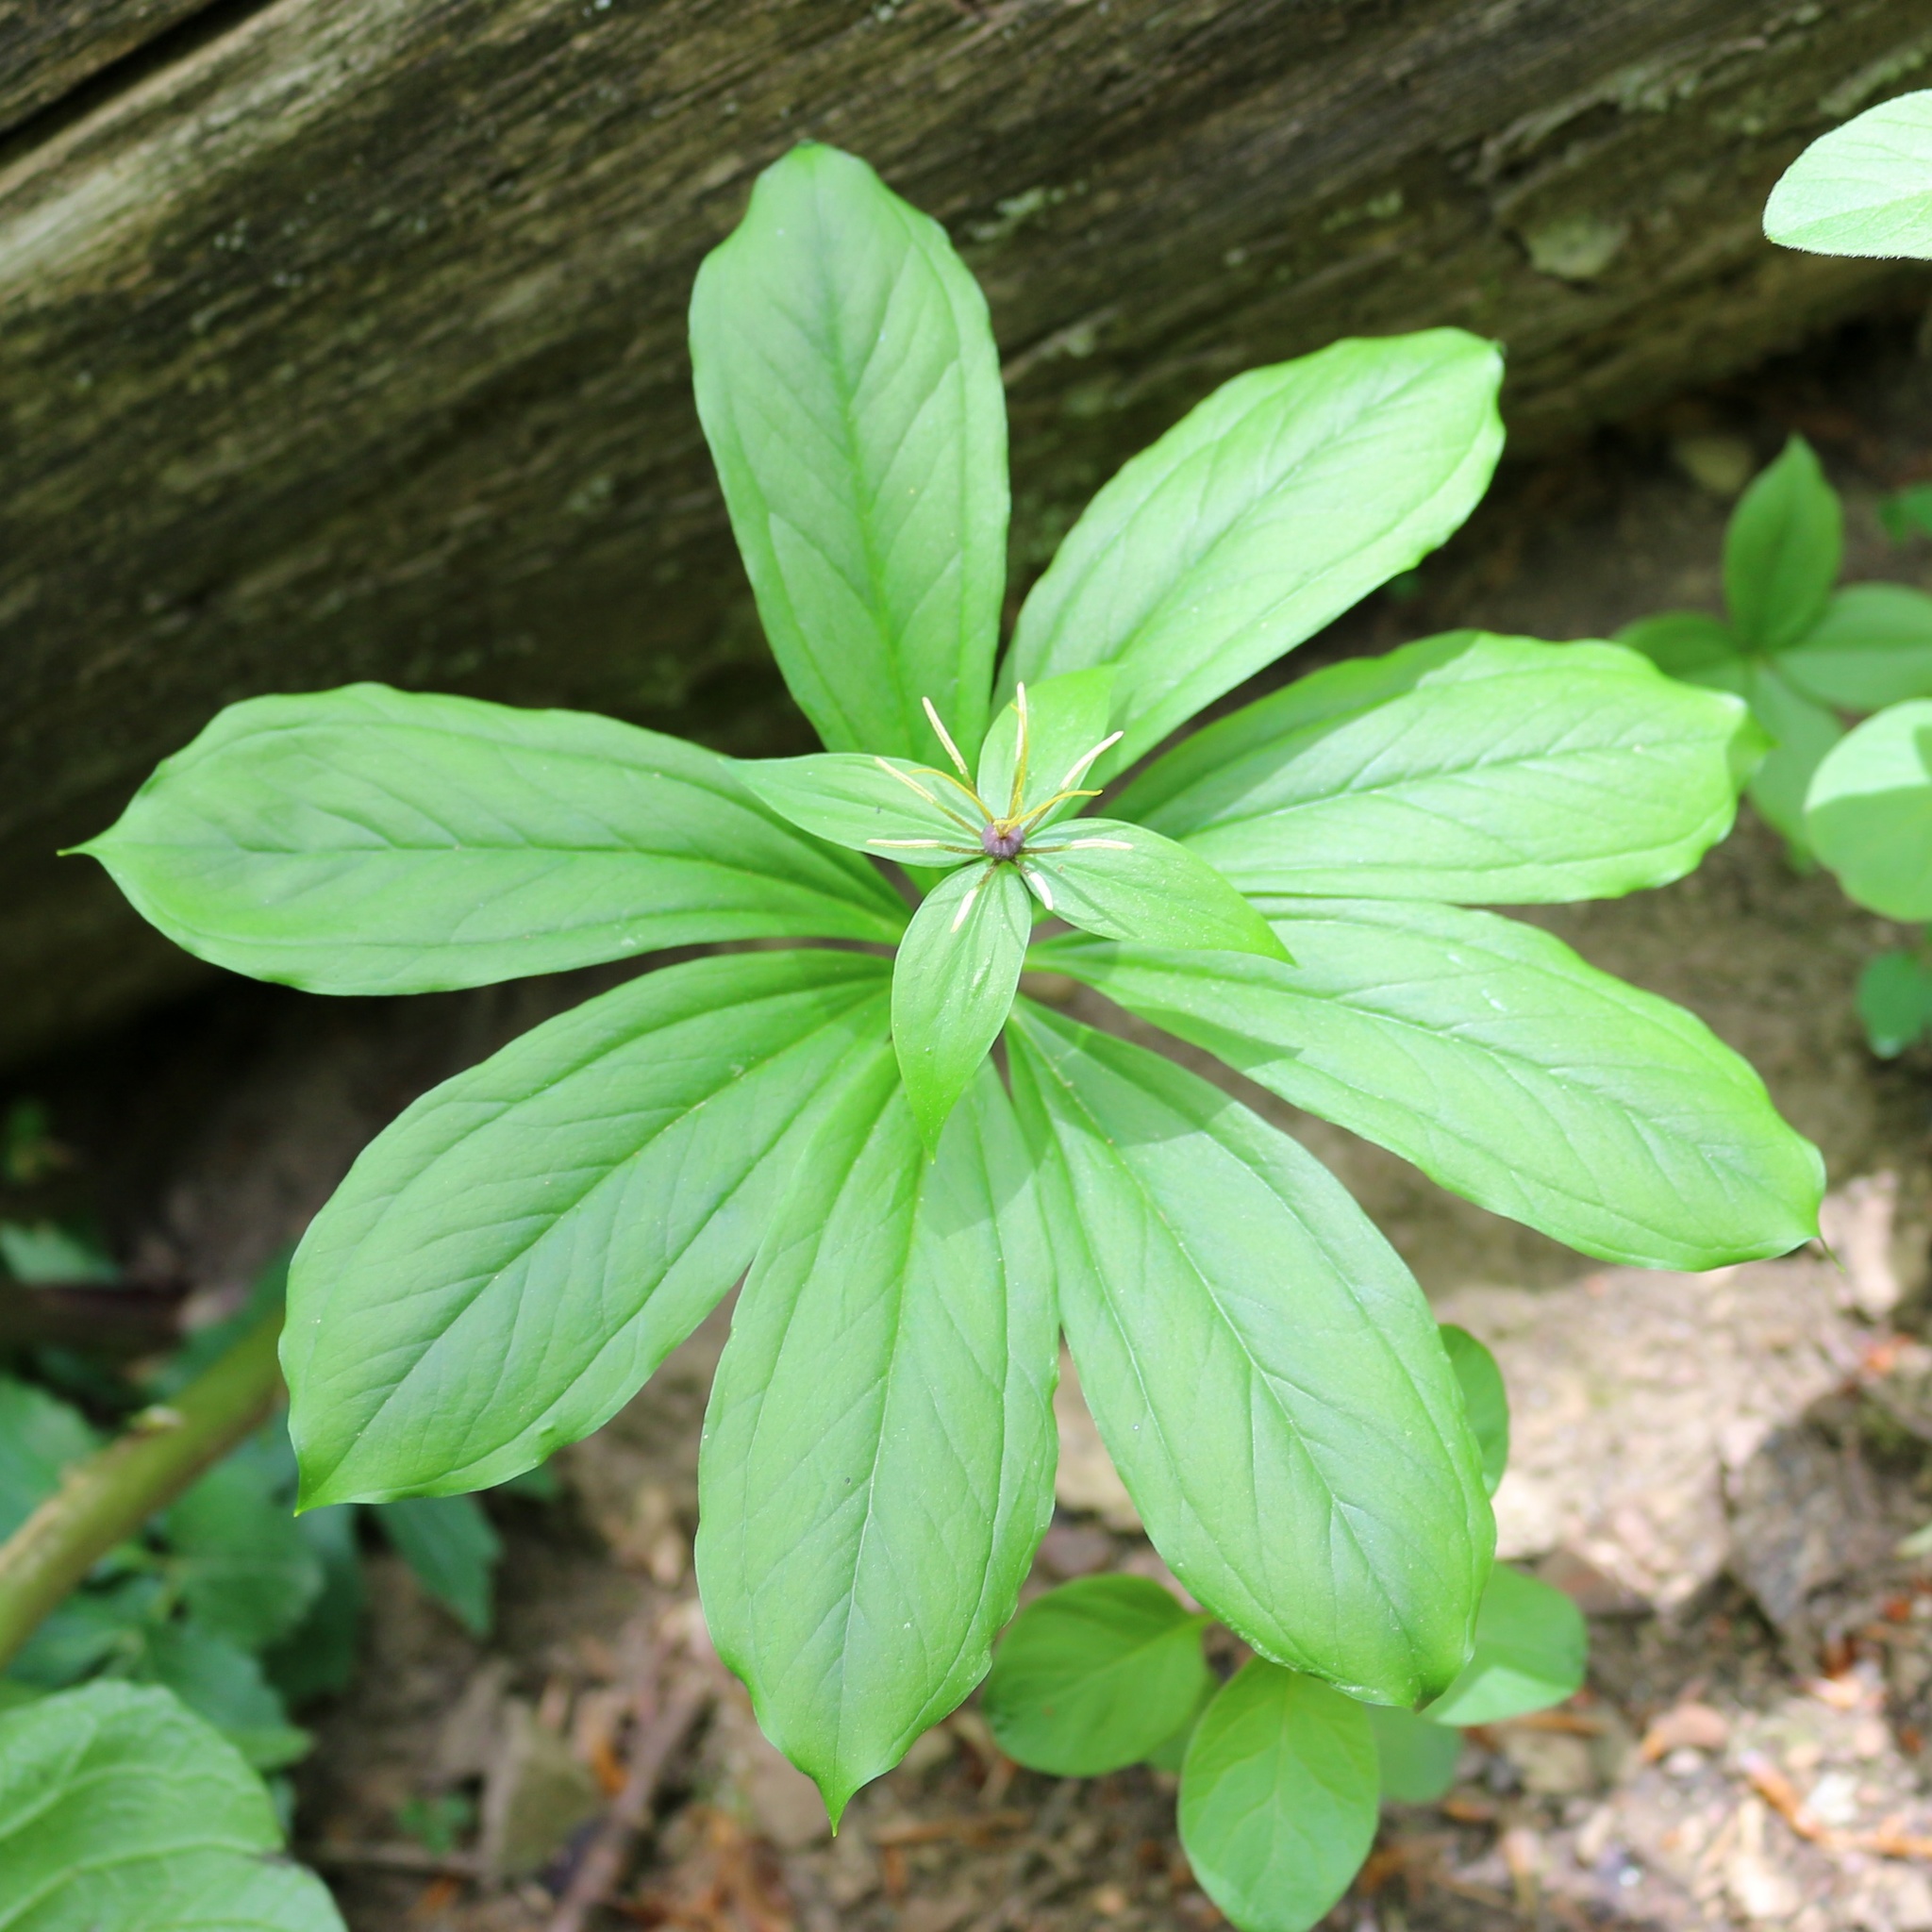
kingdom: Plantae
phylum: Tracheophyta
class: Liliopsida
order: Liliales
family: Melanthiaceae
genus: Paris
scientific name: Paris incompleta
